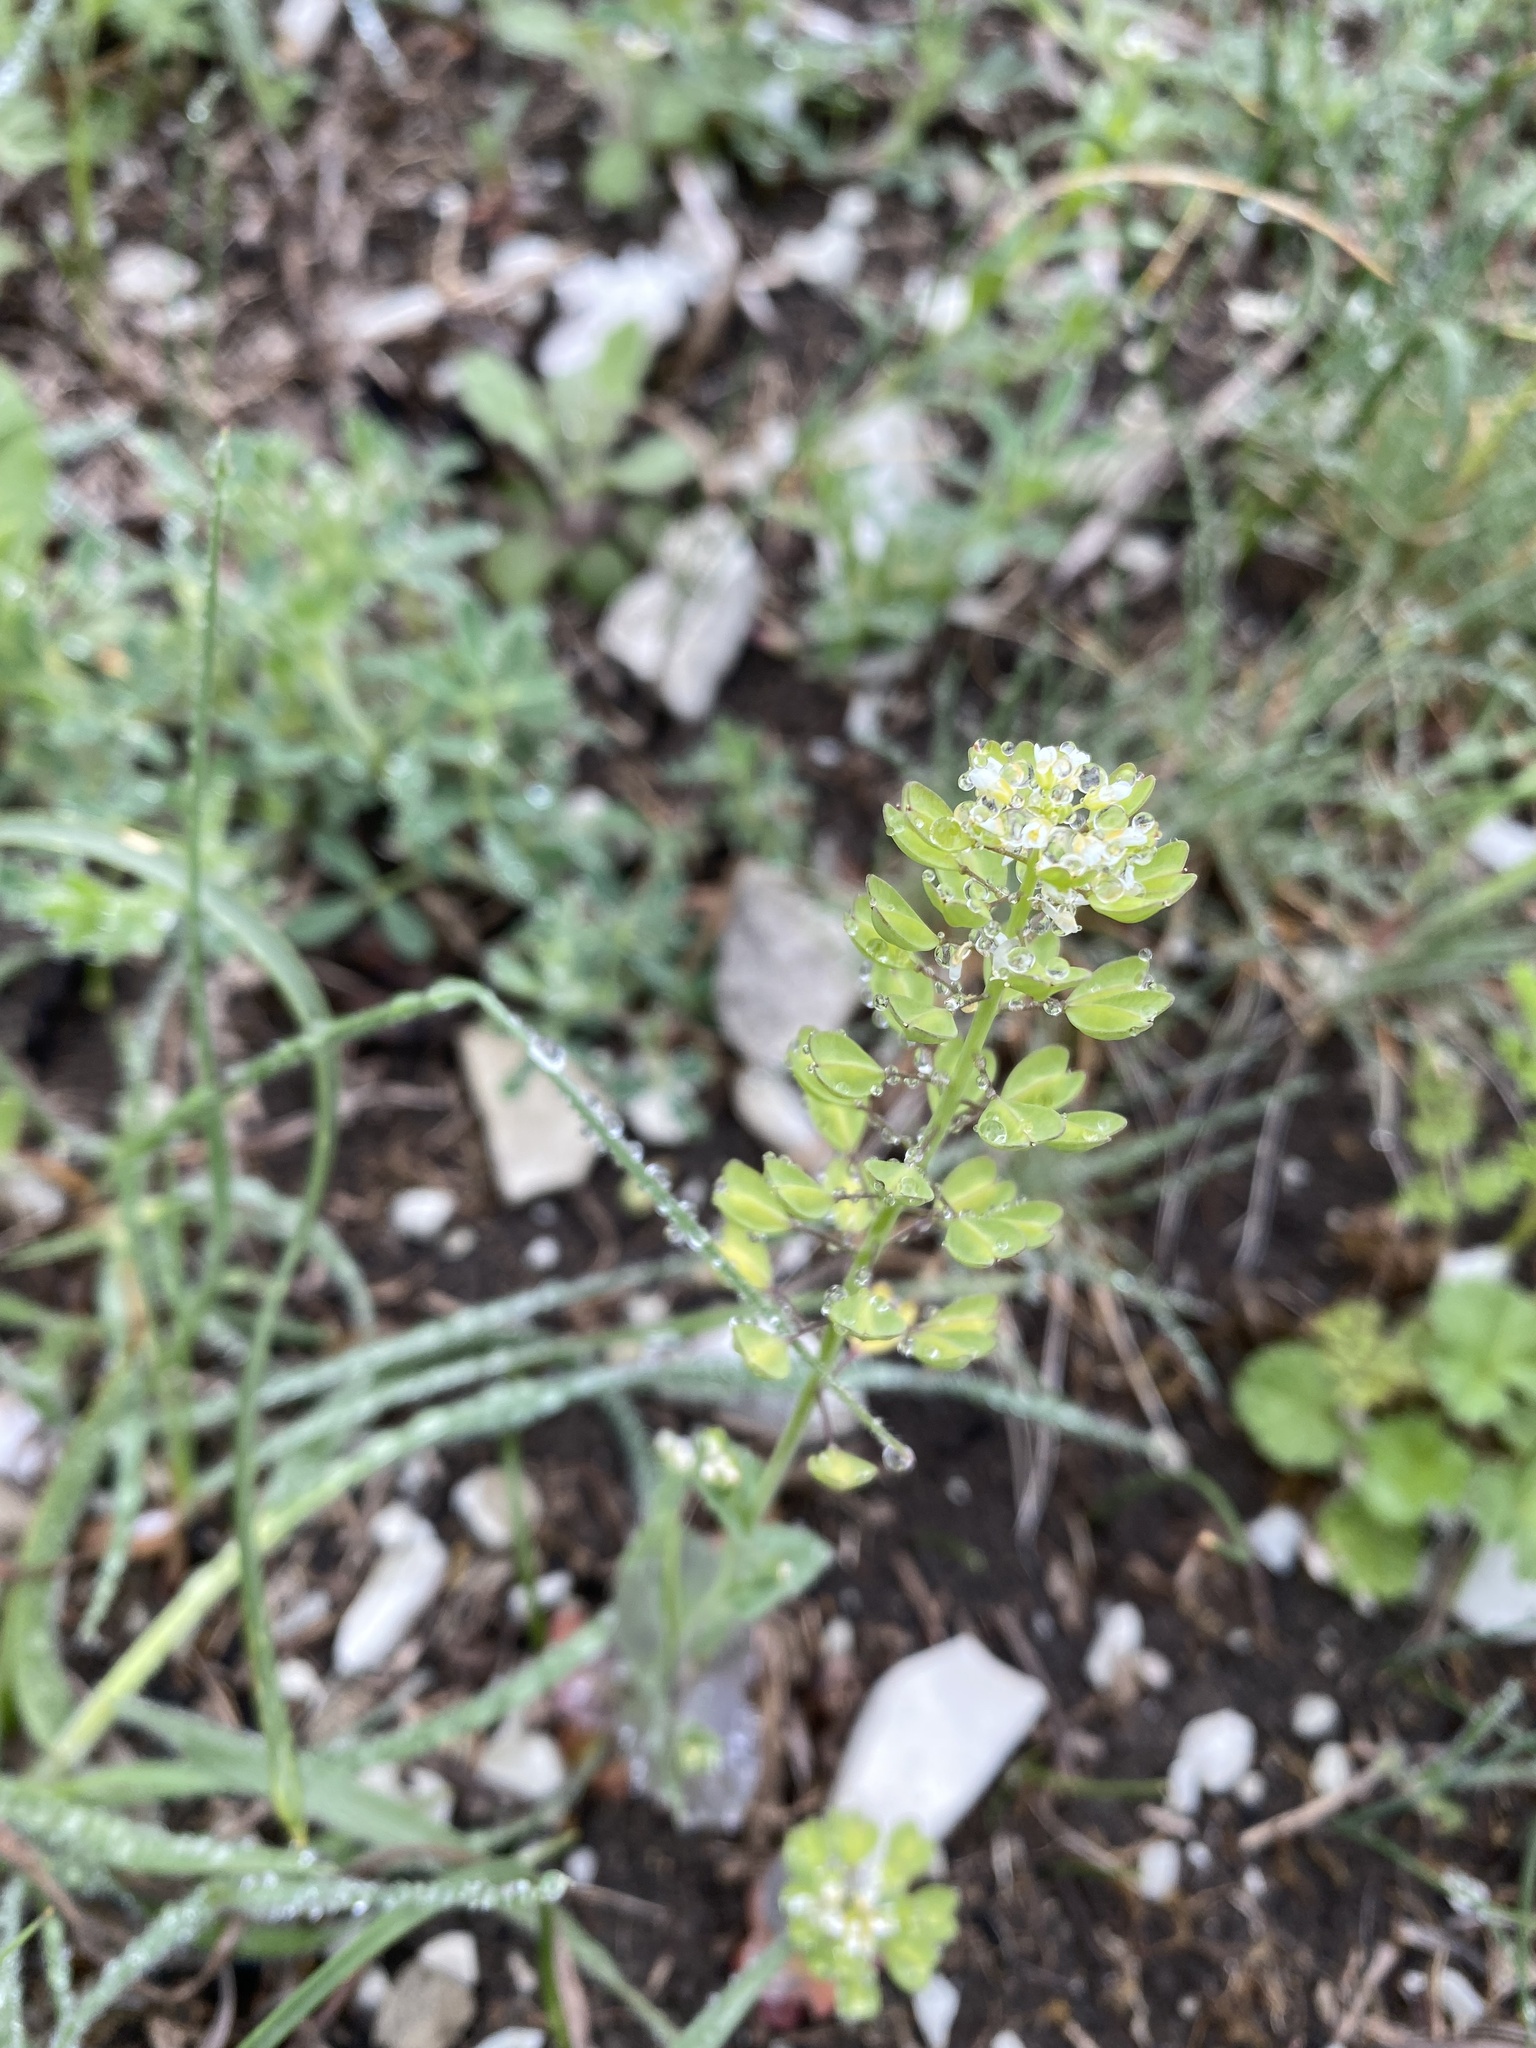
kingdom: Plantae
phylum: Tracheophyta
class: Magnoliopsida
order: Brassicales
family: Brassicaceae
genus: Noccaea
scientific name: Noccaea perfoliata
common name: Perfoliate pennycress
